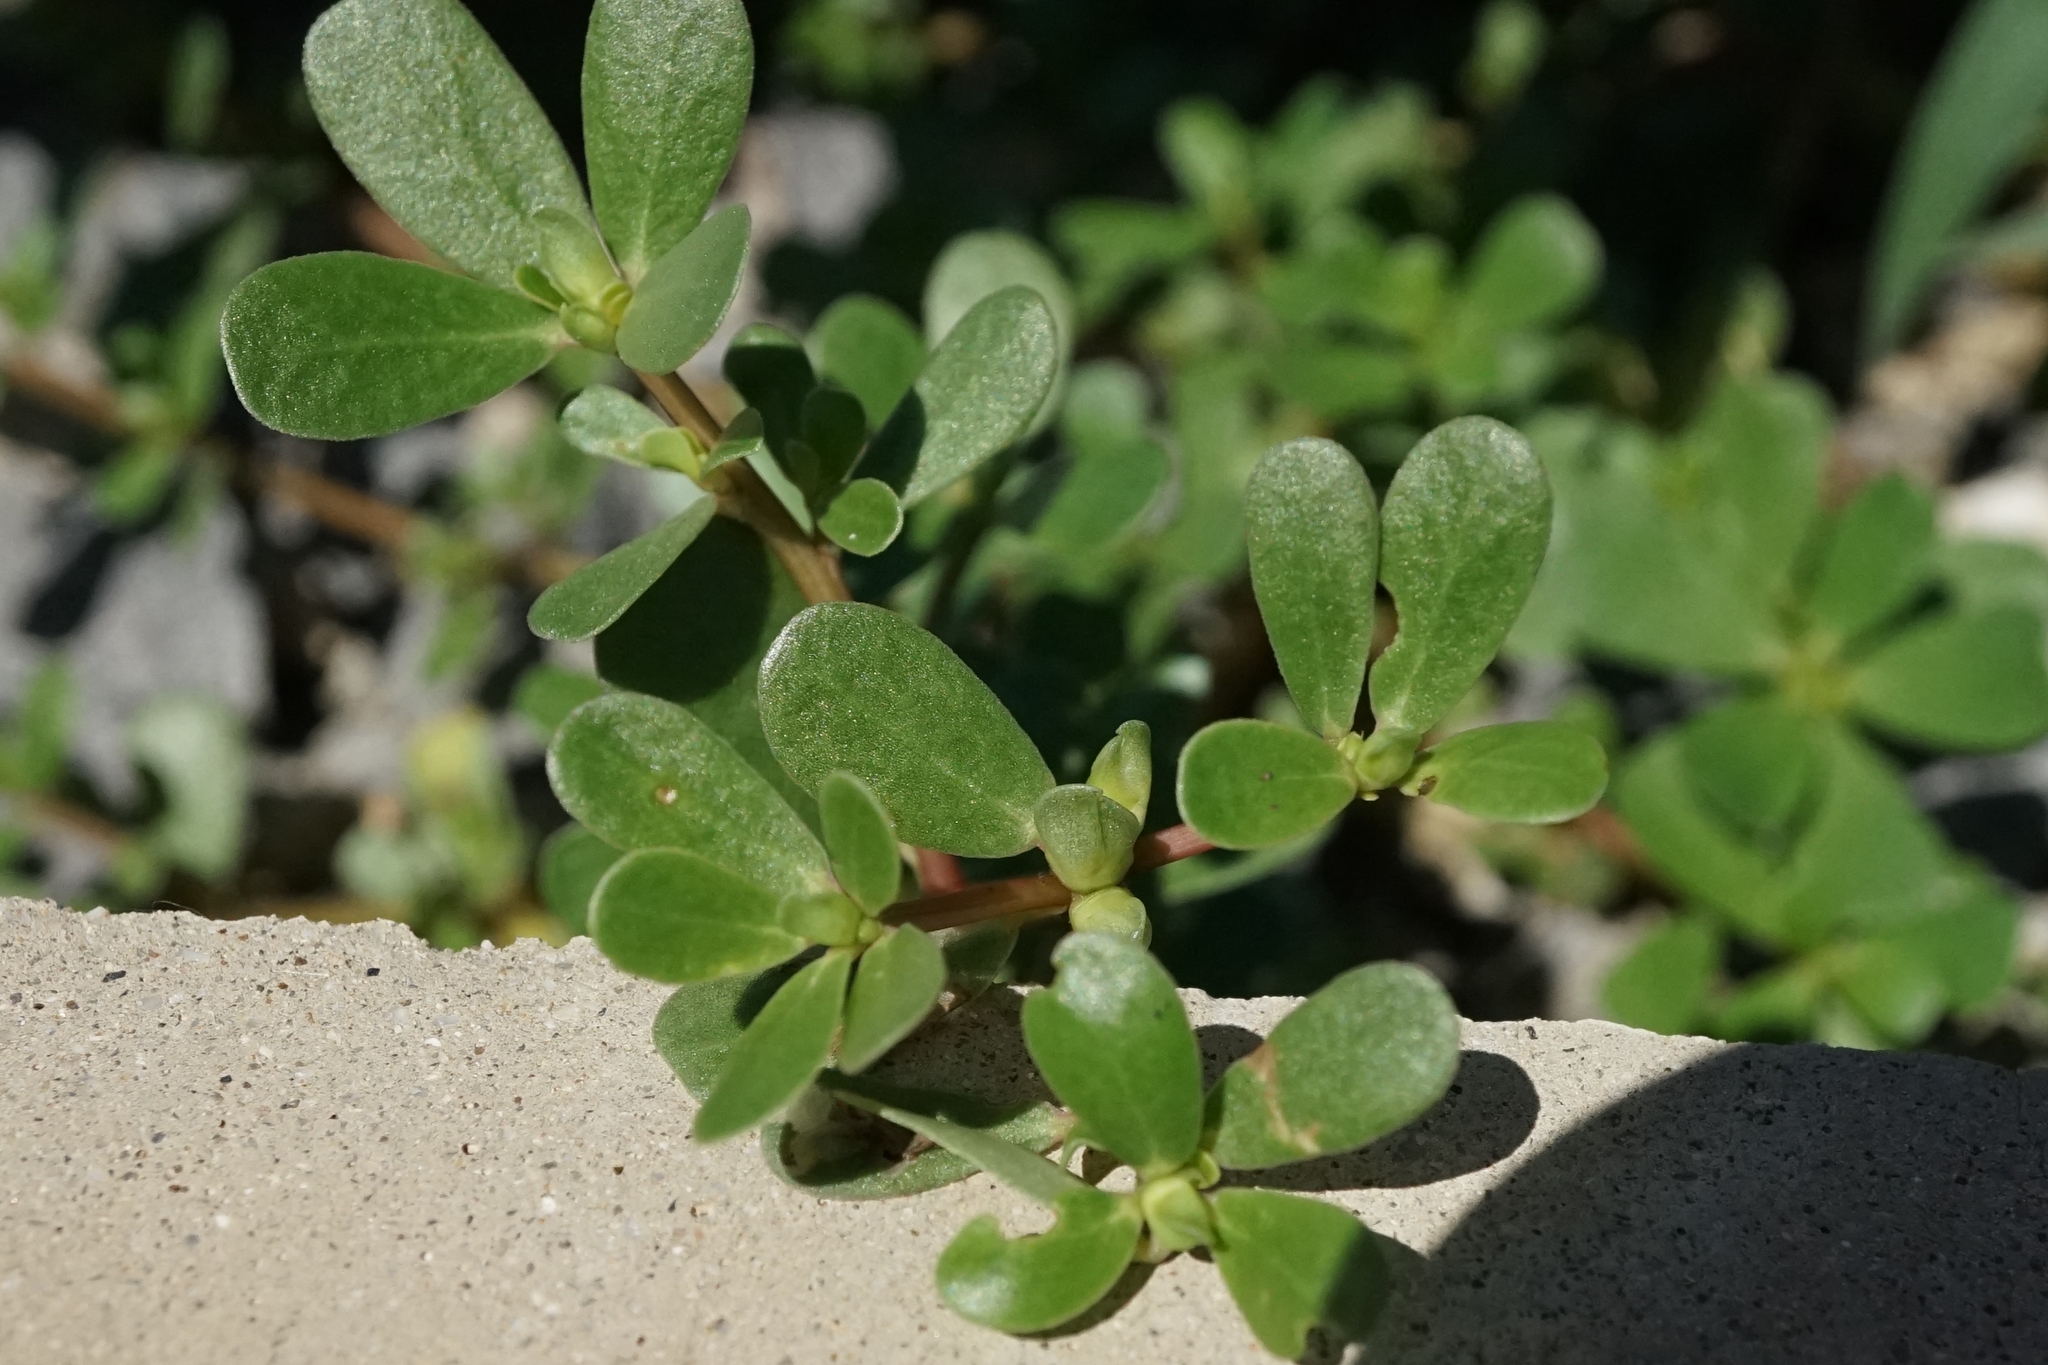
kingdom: Plantae
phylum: Tracheophyta
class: Magnoliopsida
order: Caryophyllales
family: Portulacaceae
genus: Portulaca
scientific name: Portulaca oleracea
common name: Common purslane
